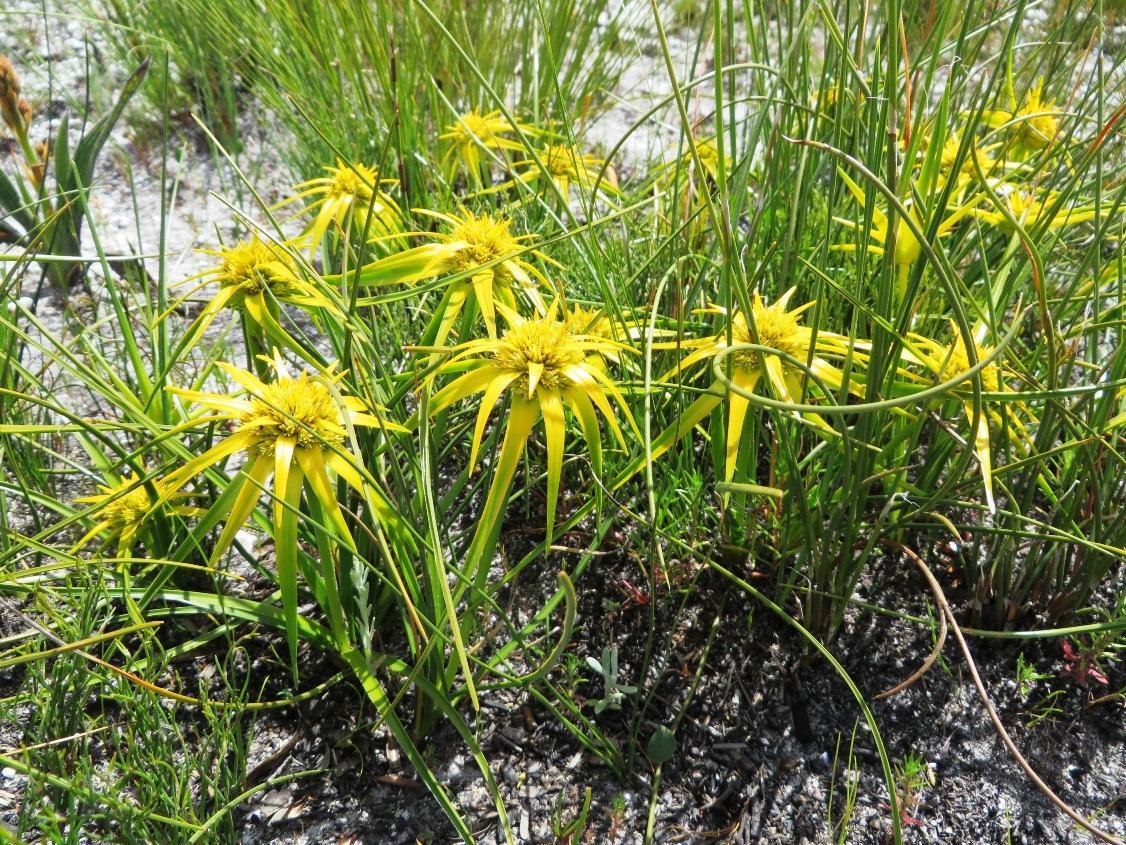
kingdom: Plantae
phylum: Tracheophyta
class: Liliopsida
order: Poales
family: Cyperaceae
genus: Ficinia
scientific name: Ficinia radiata
